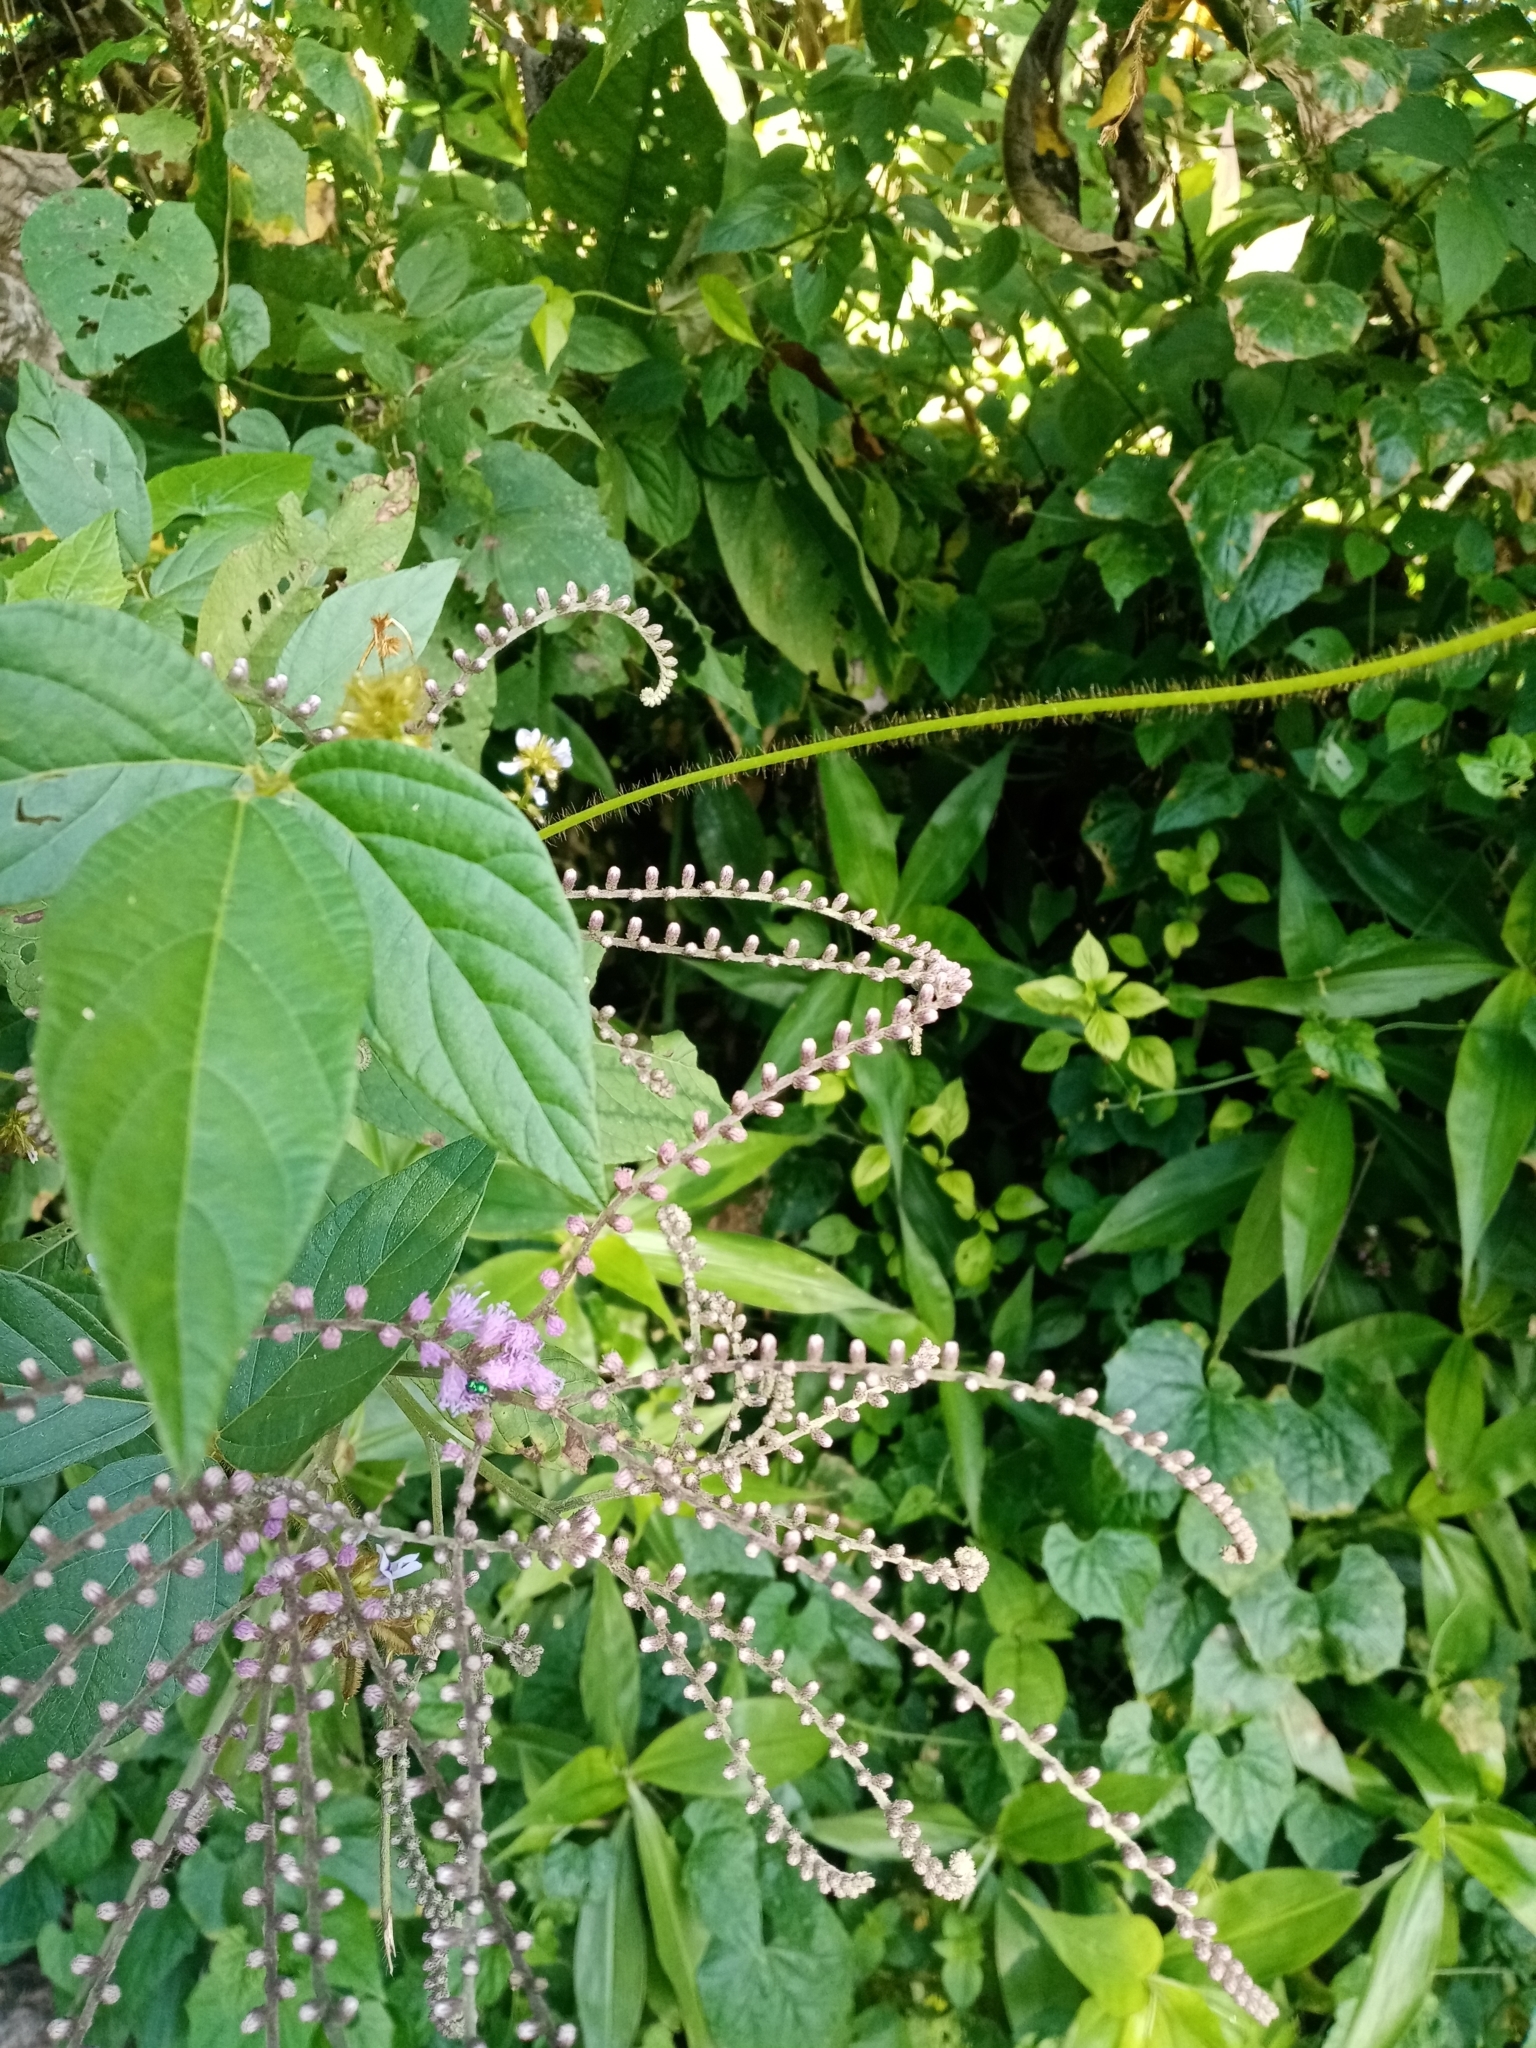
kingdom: Plantae
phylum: Tracheophyta
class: Magnoliopsida
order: Asterales
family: Asteraceae
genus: Eirmocephala
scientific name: Eirmocephala brachiata
